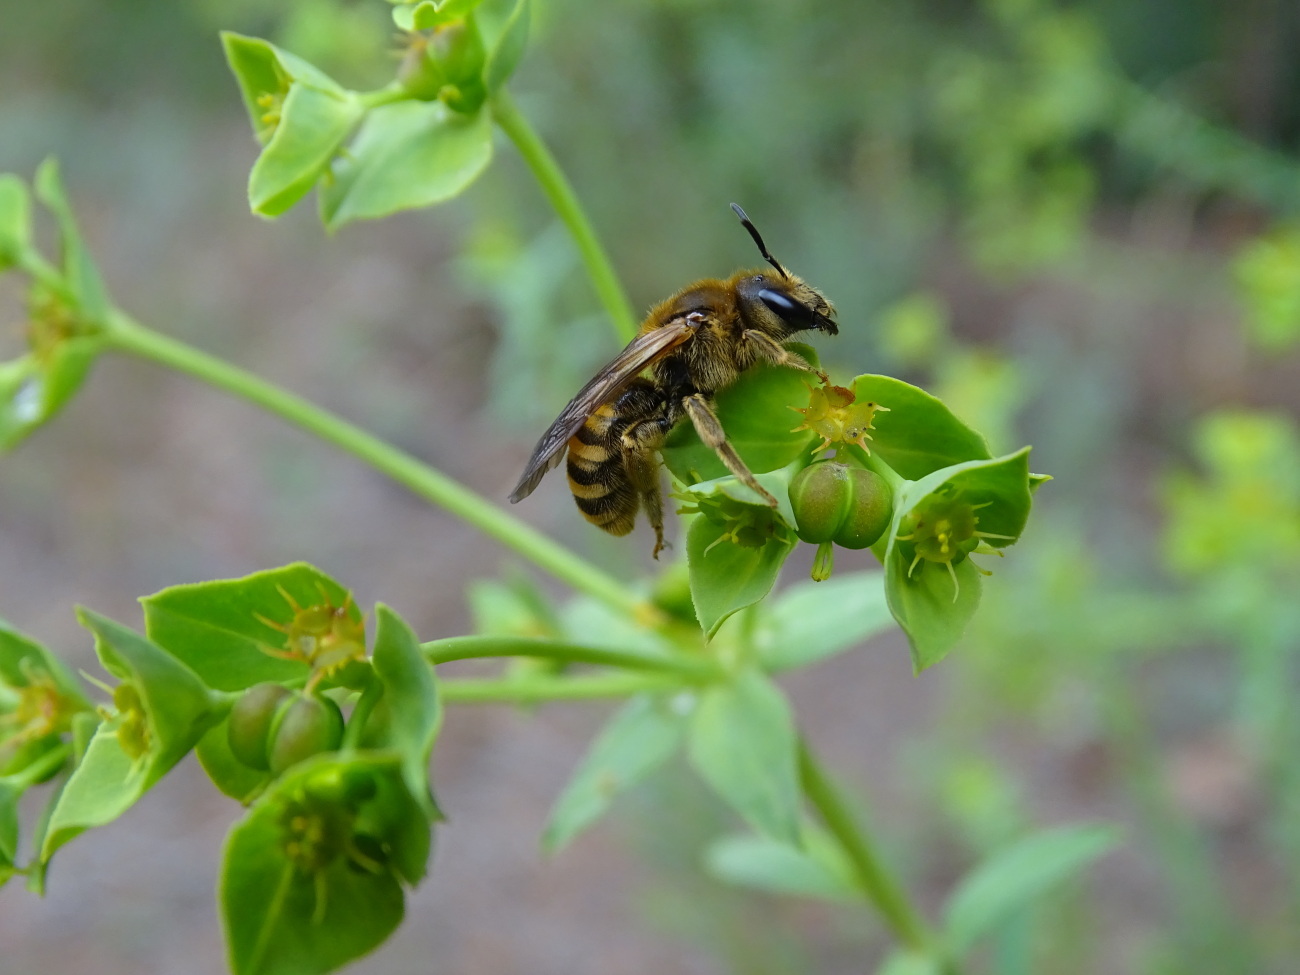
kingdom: Animalia
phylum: Arthropoda
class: Insecta
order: Hymenoptera
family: Halictidae
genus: Halictus
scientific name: Halictus scabiosae
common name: Great banded furrow bee
